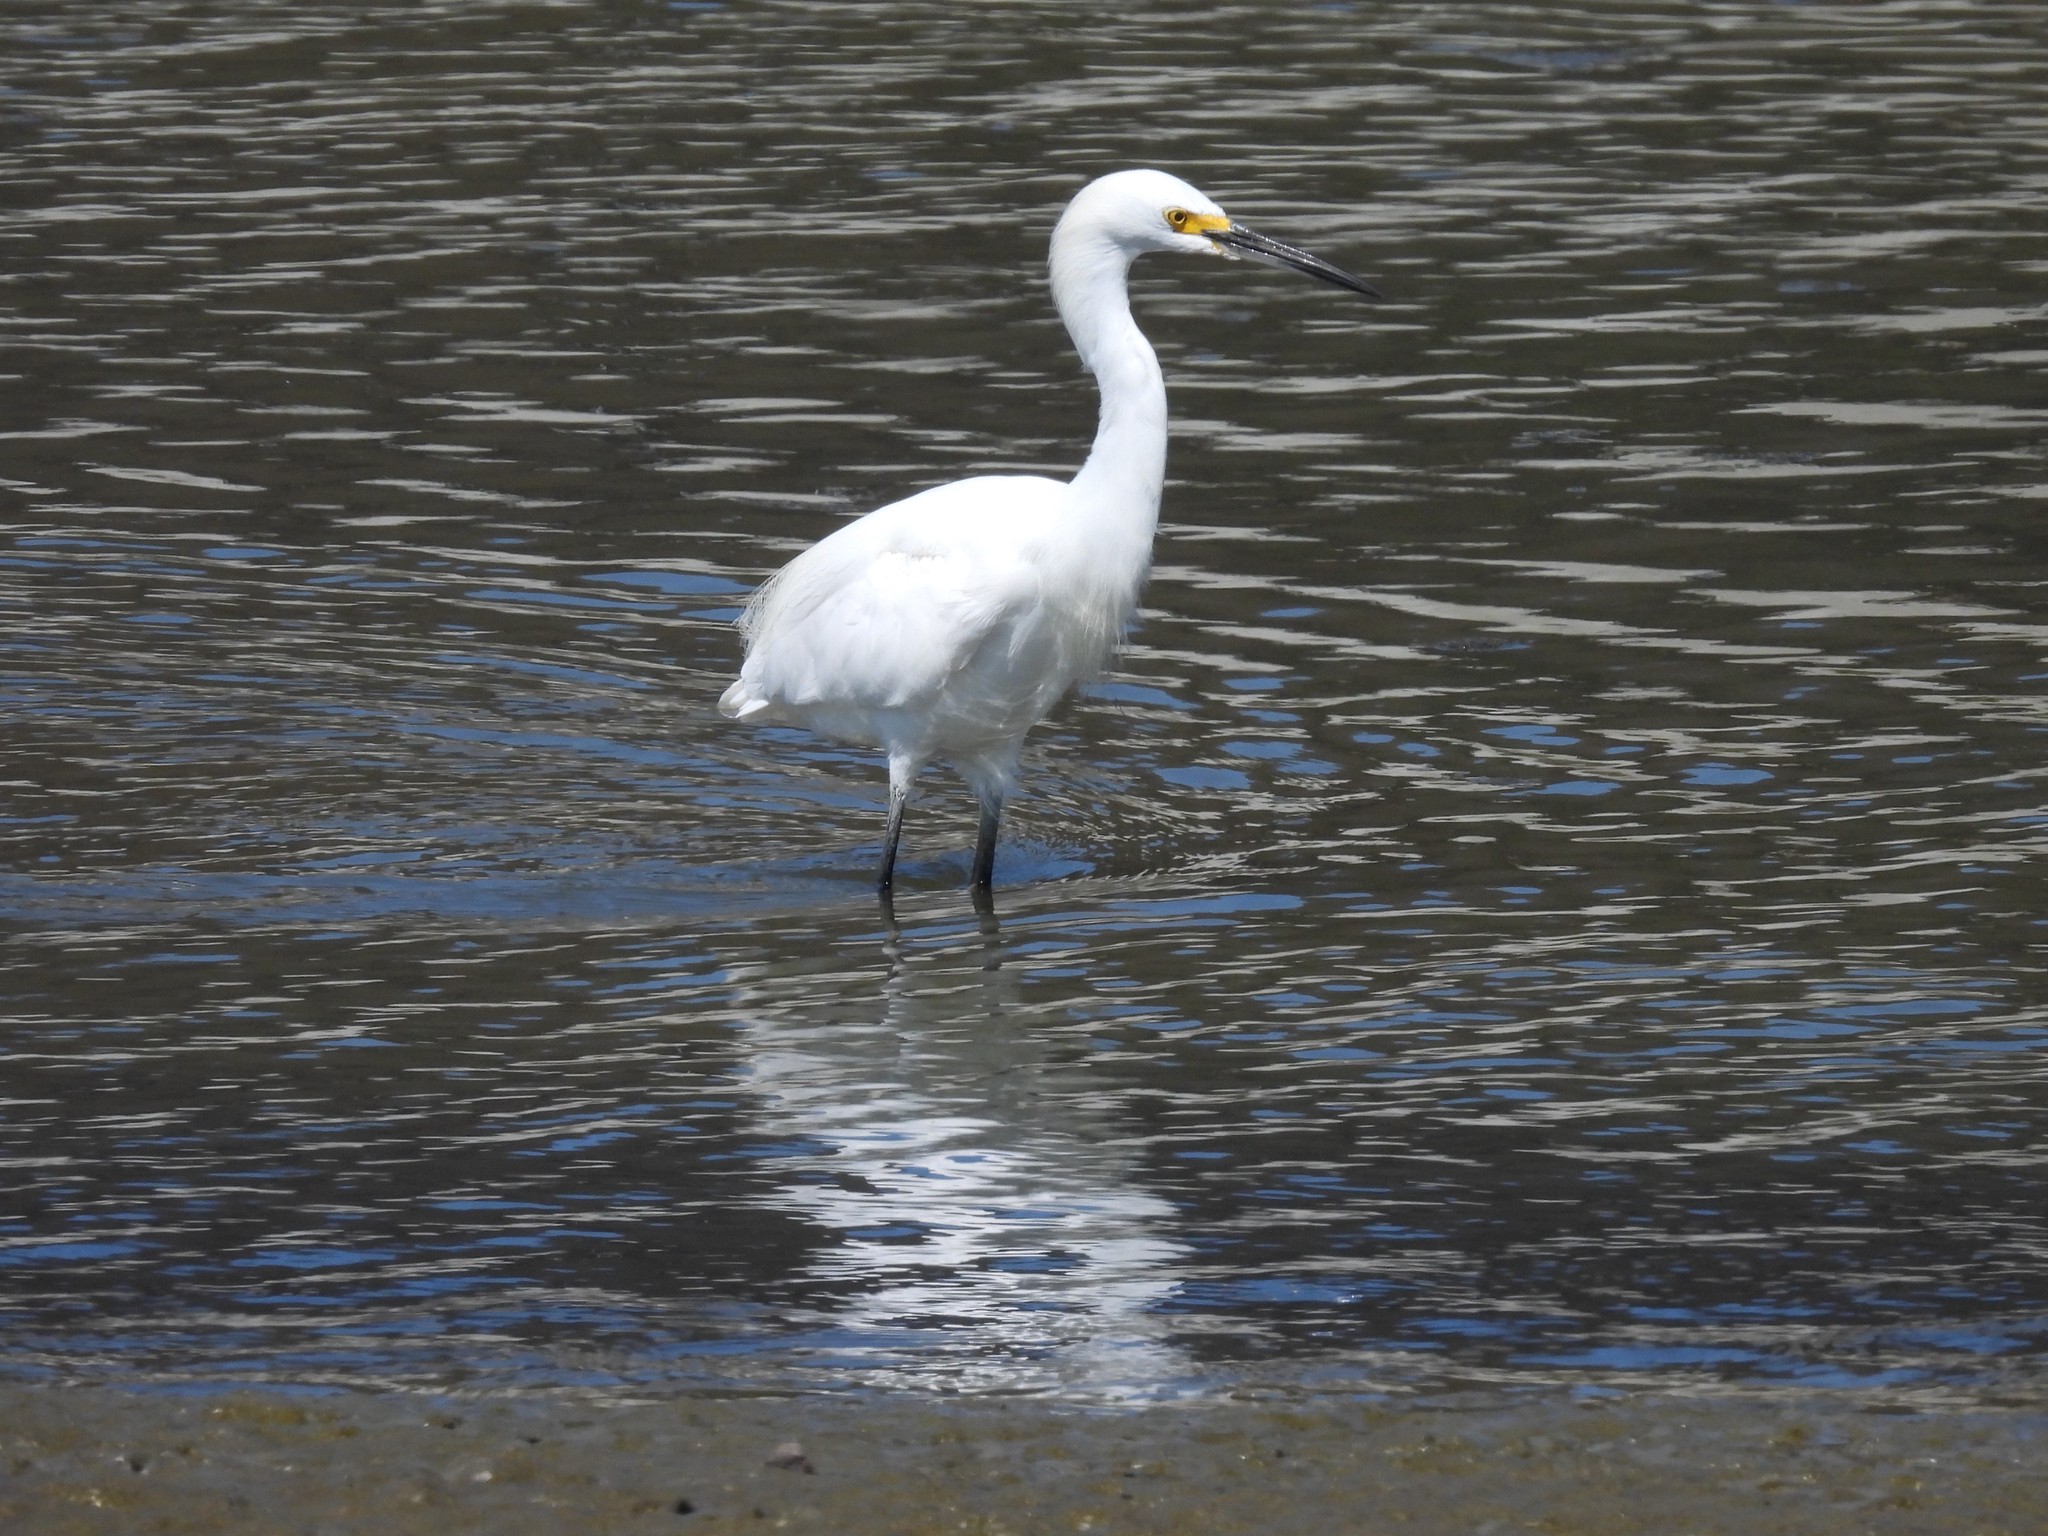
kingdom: Animalia
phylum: Chordata
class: Aves
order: Pelecaniformes
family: Ardeidae
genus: Egretta
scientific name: Egretta thula
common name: Snowy egret
